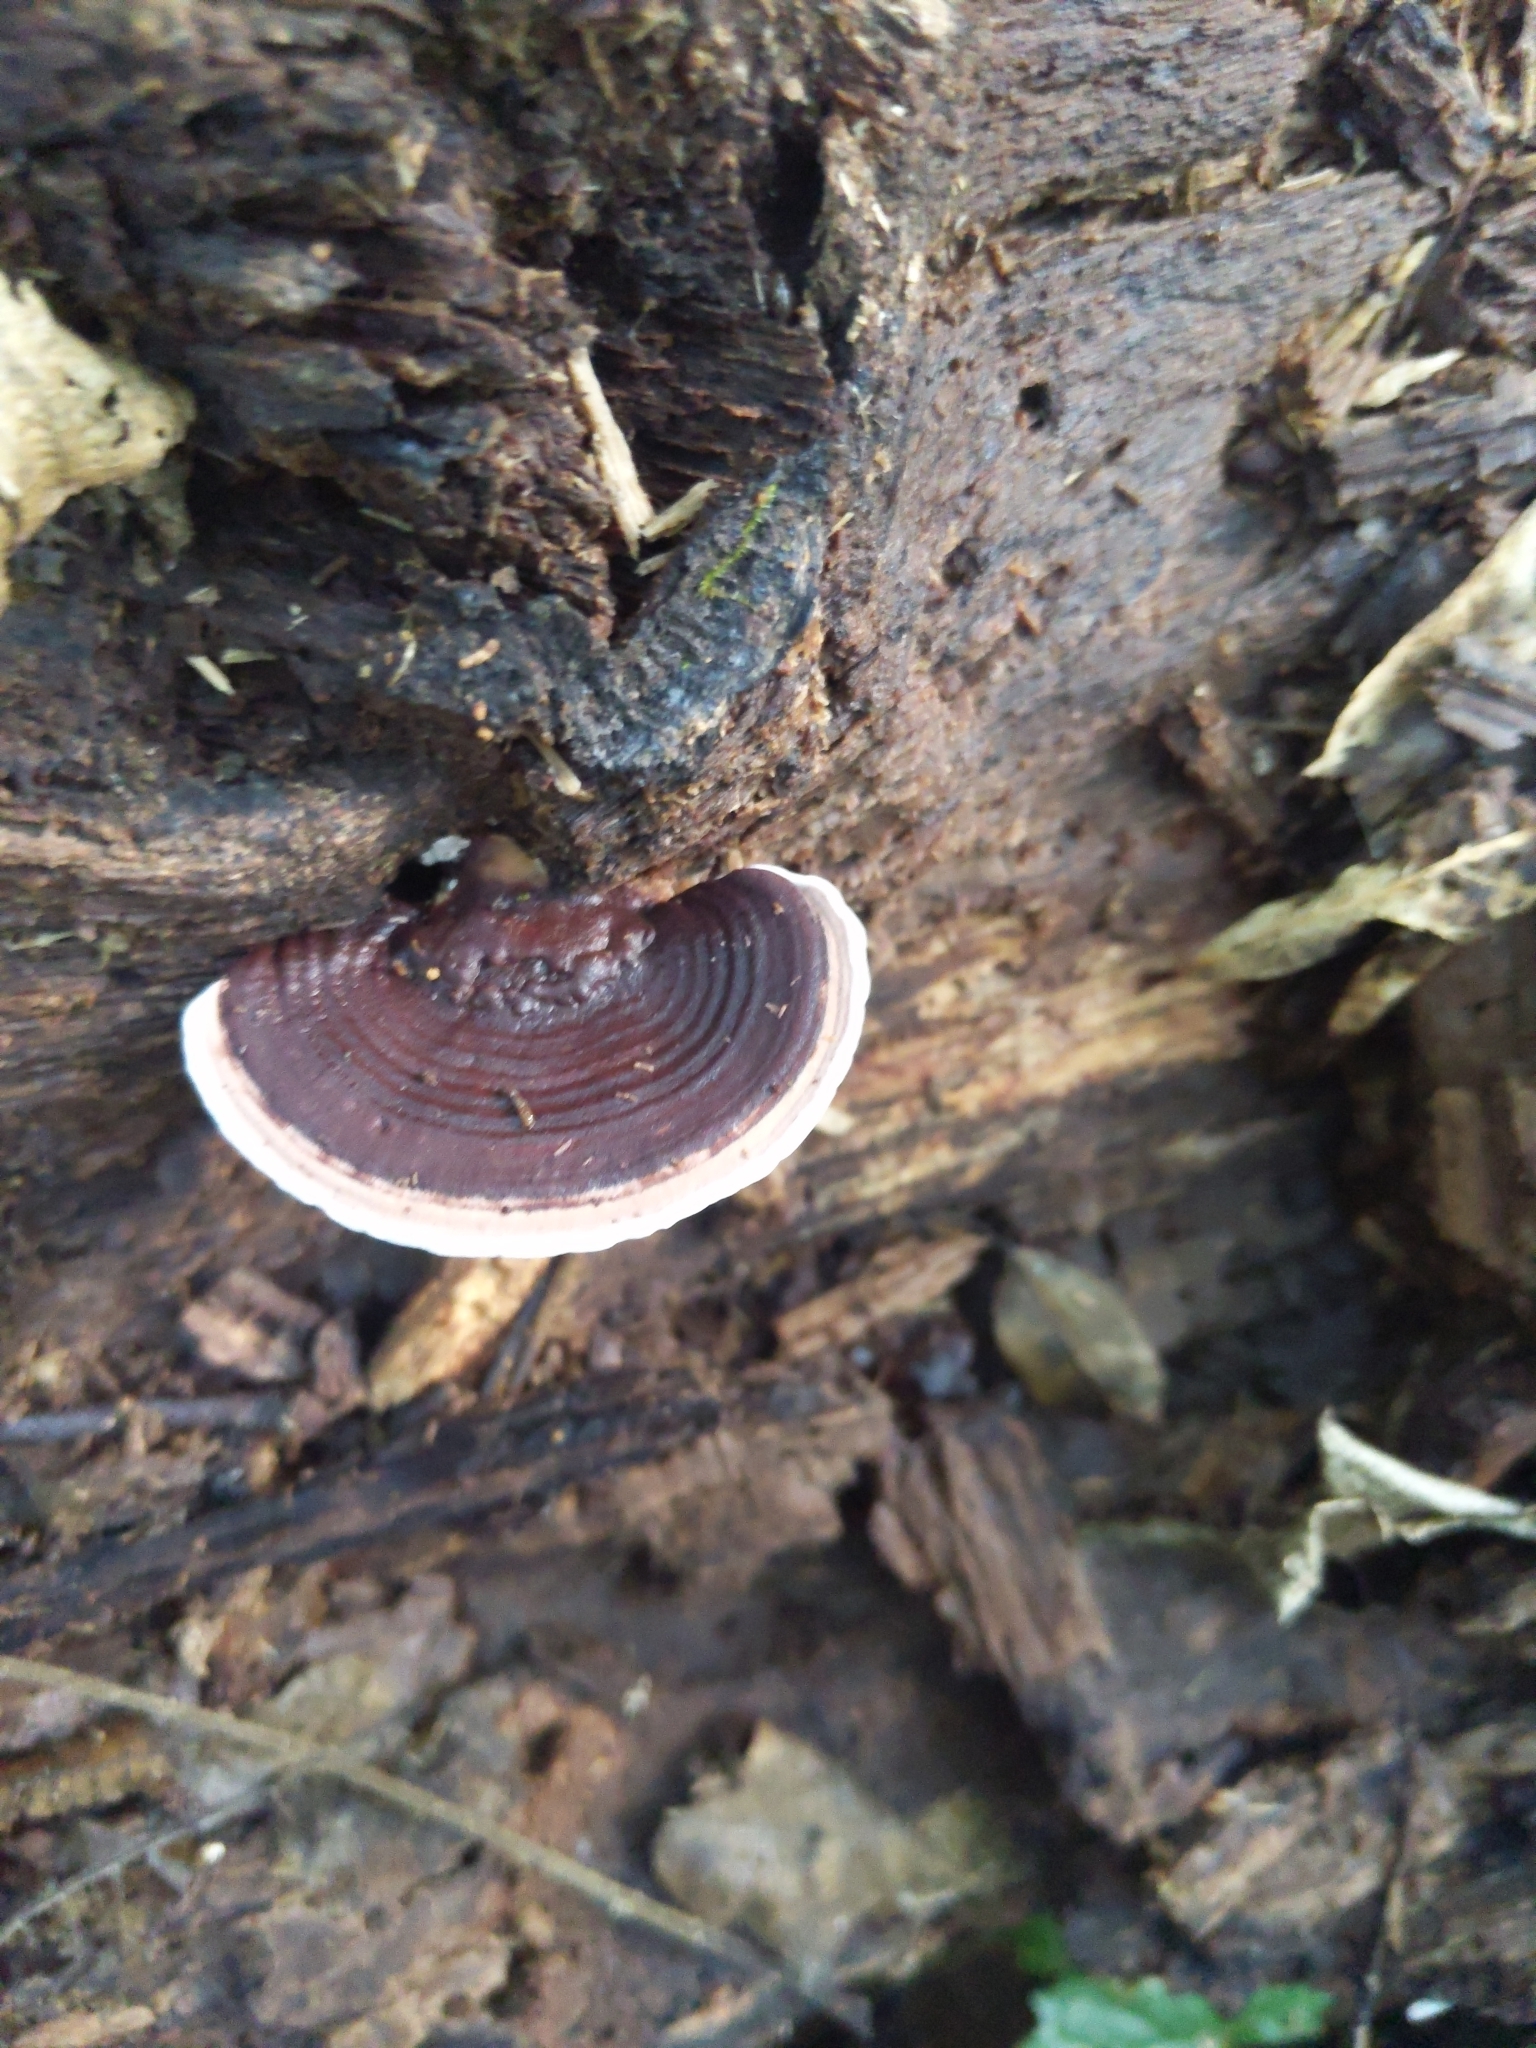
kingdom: Fungi
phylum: Basidiomycota
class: Agaricomycetes
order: Polyporales
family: Steccherinaceae
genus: Nigroporus
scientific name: Nigroporus vinosus
